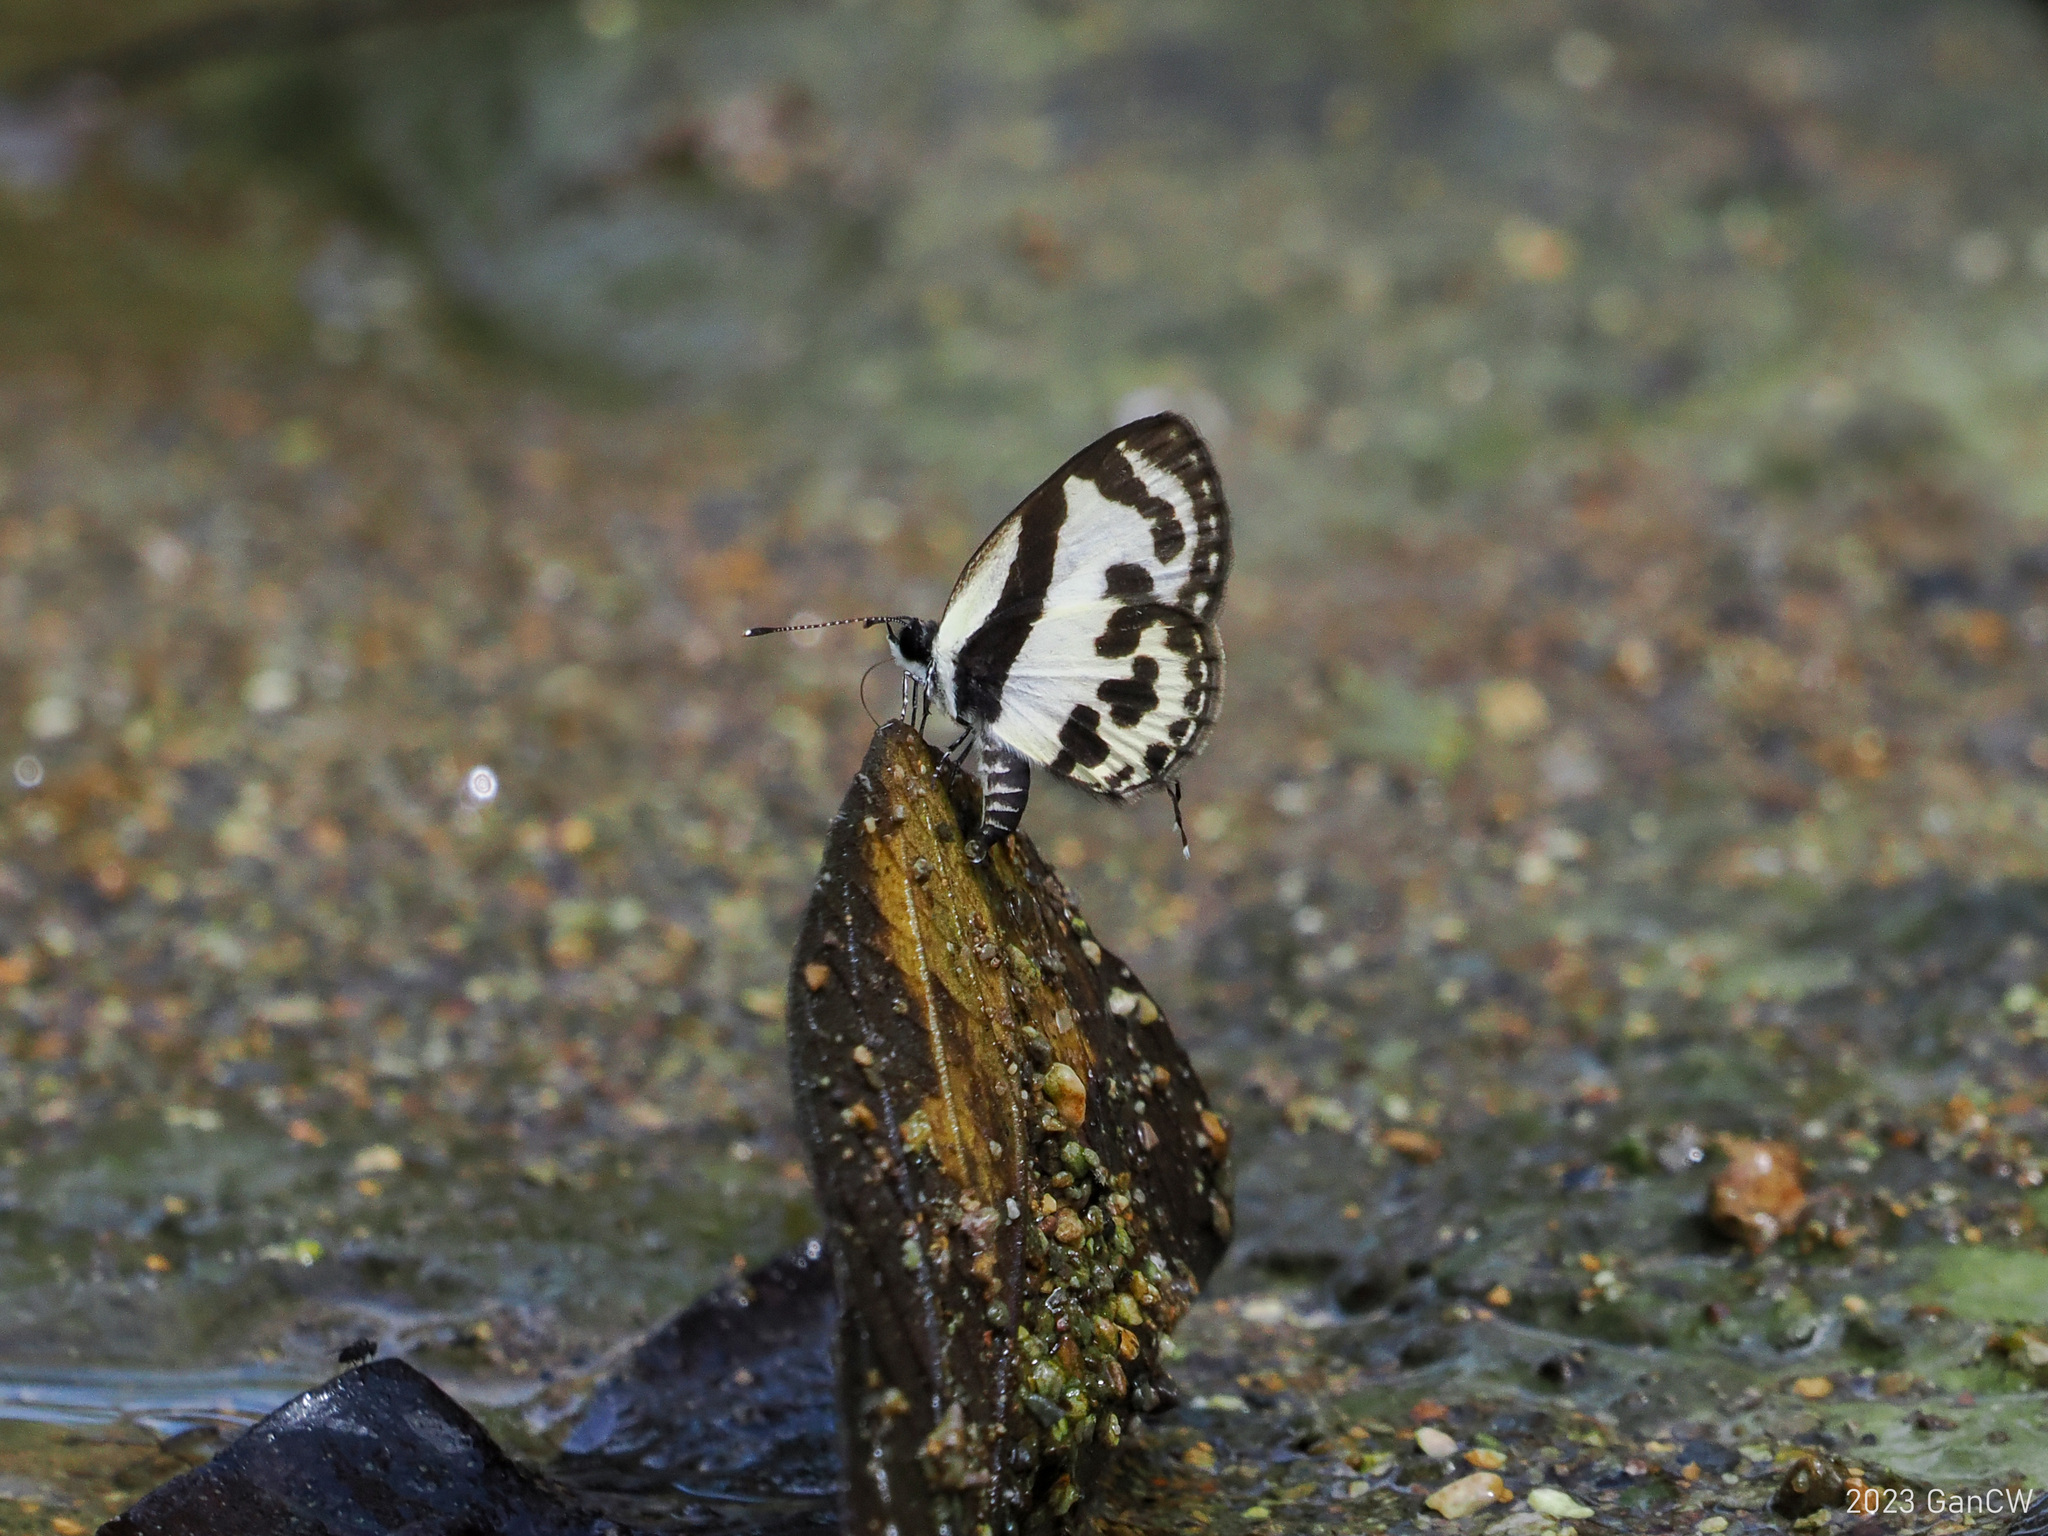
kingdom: Animalia
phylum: Arthropoda
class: Insecta
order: Lepidoptera
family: Lycaenidae
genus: Caleta
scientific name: Caleta
